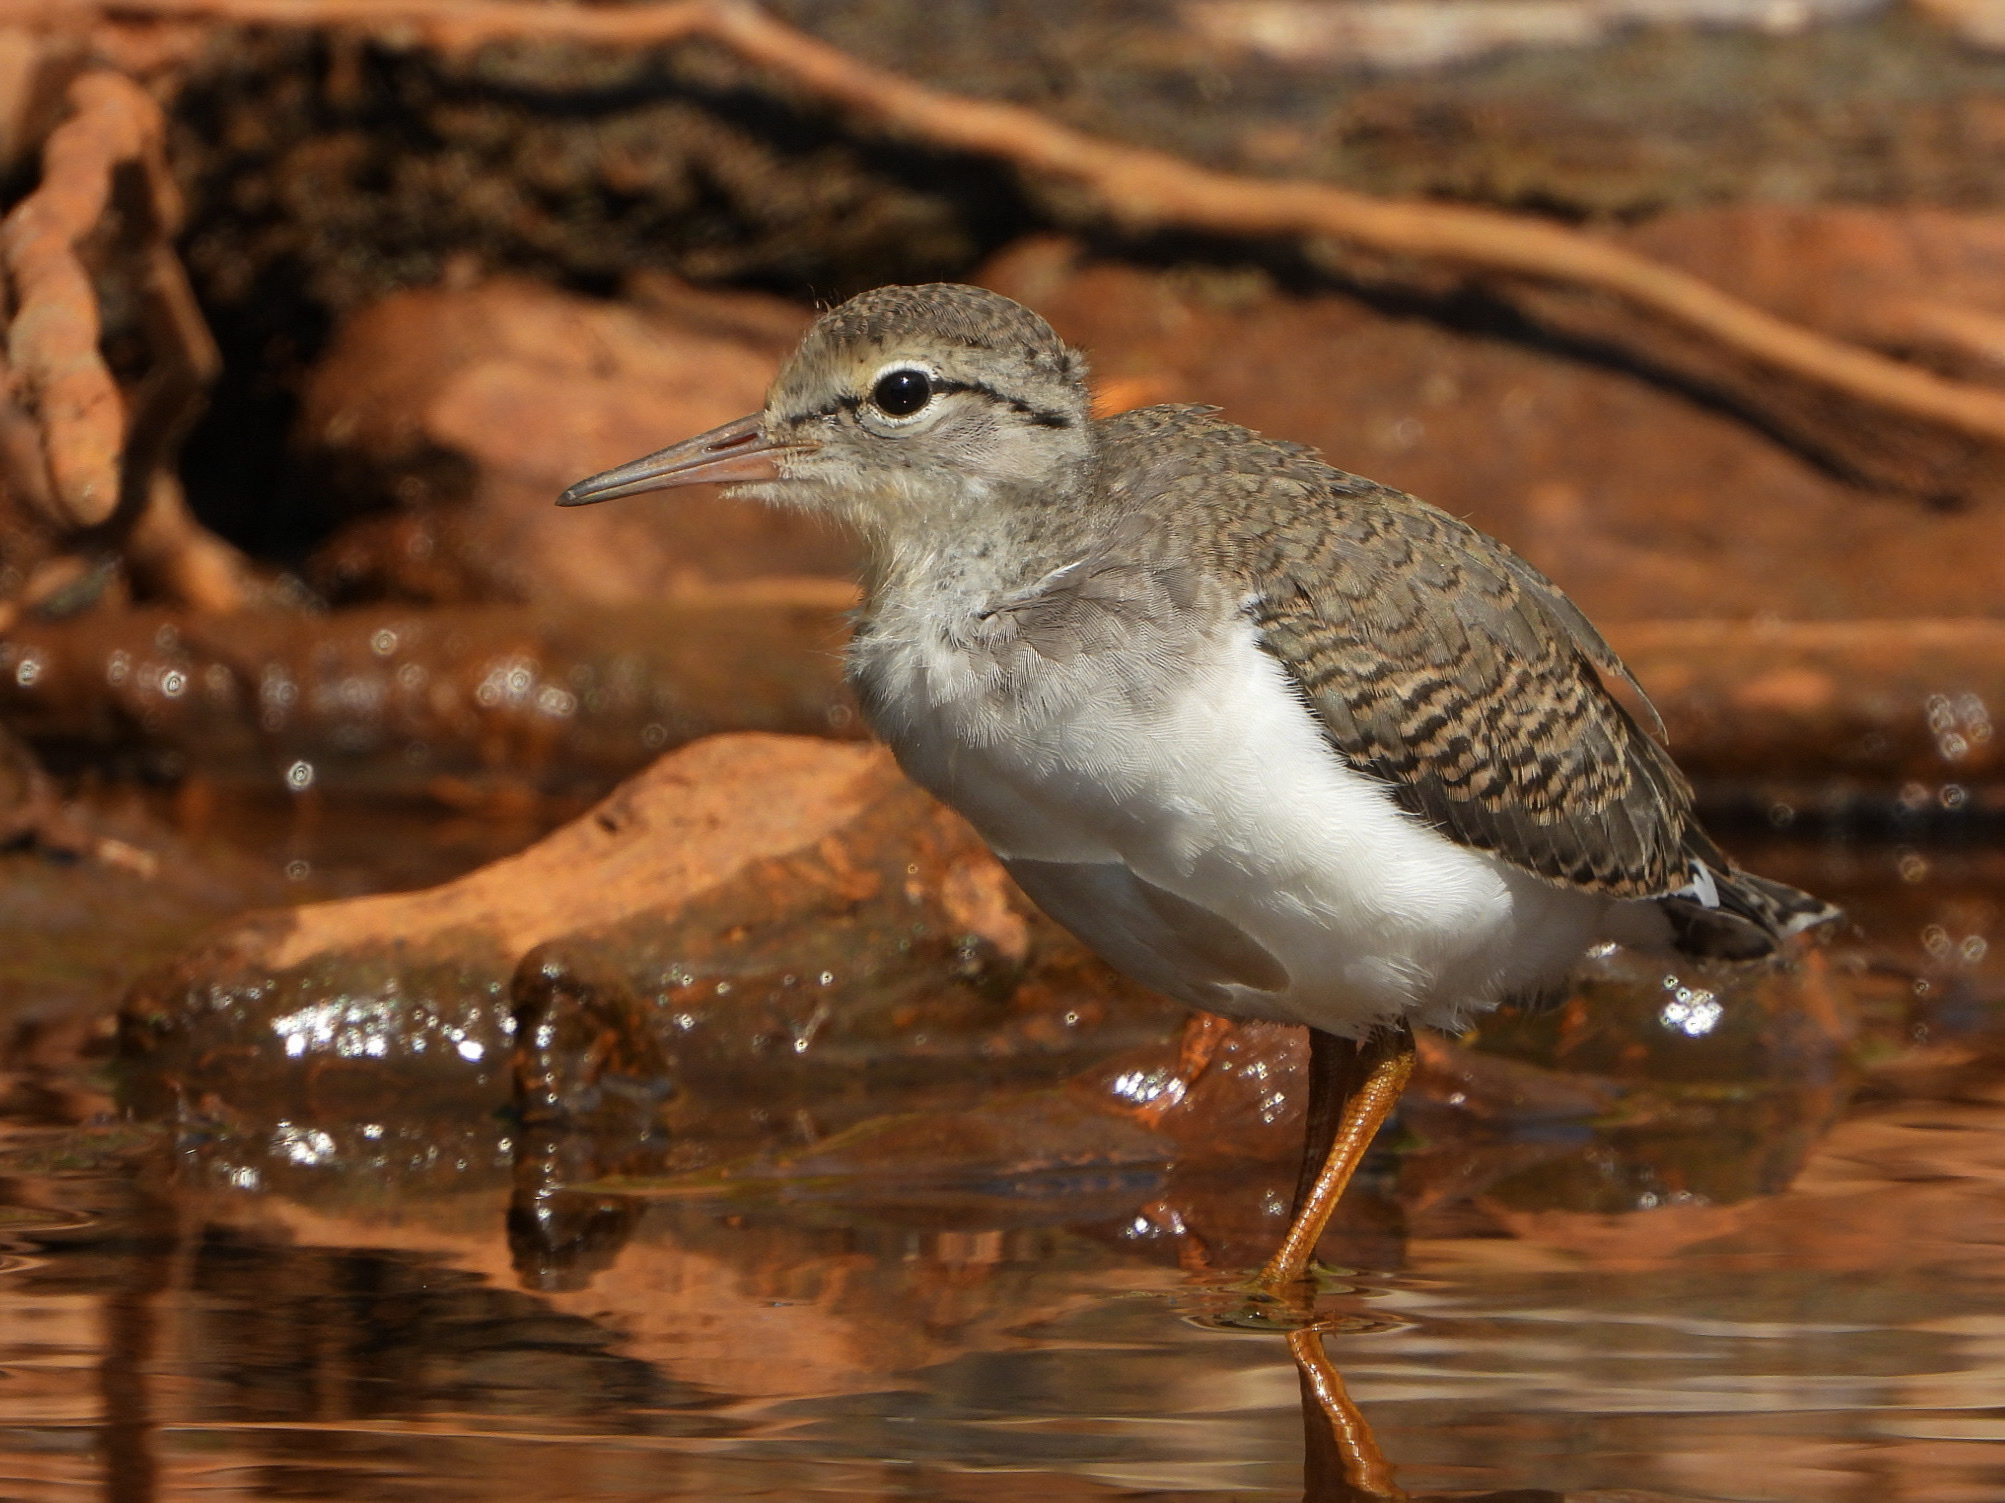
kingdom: Animalia
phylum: Chordata
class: Aves
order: Charadriiformes
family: Scolopacidae
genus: Actitis
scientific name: Actitis macularius
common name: Spotted sandpiper
